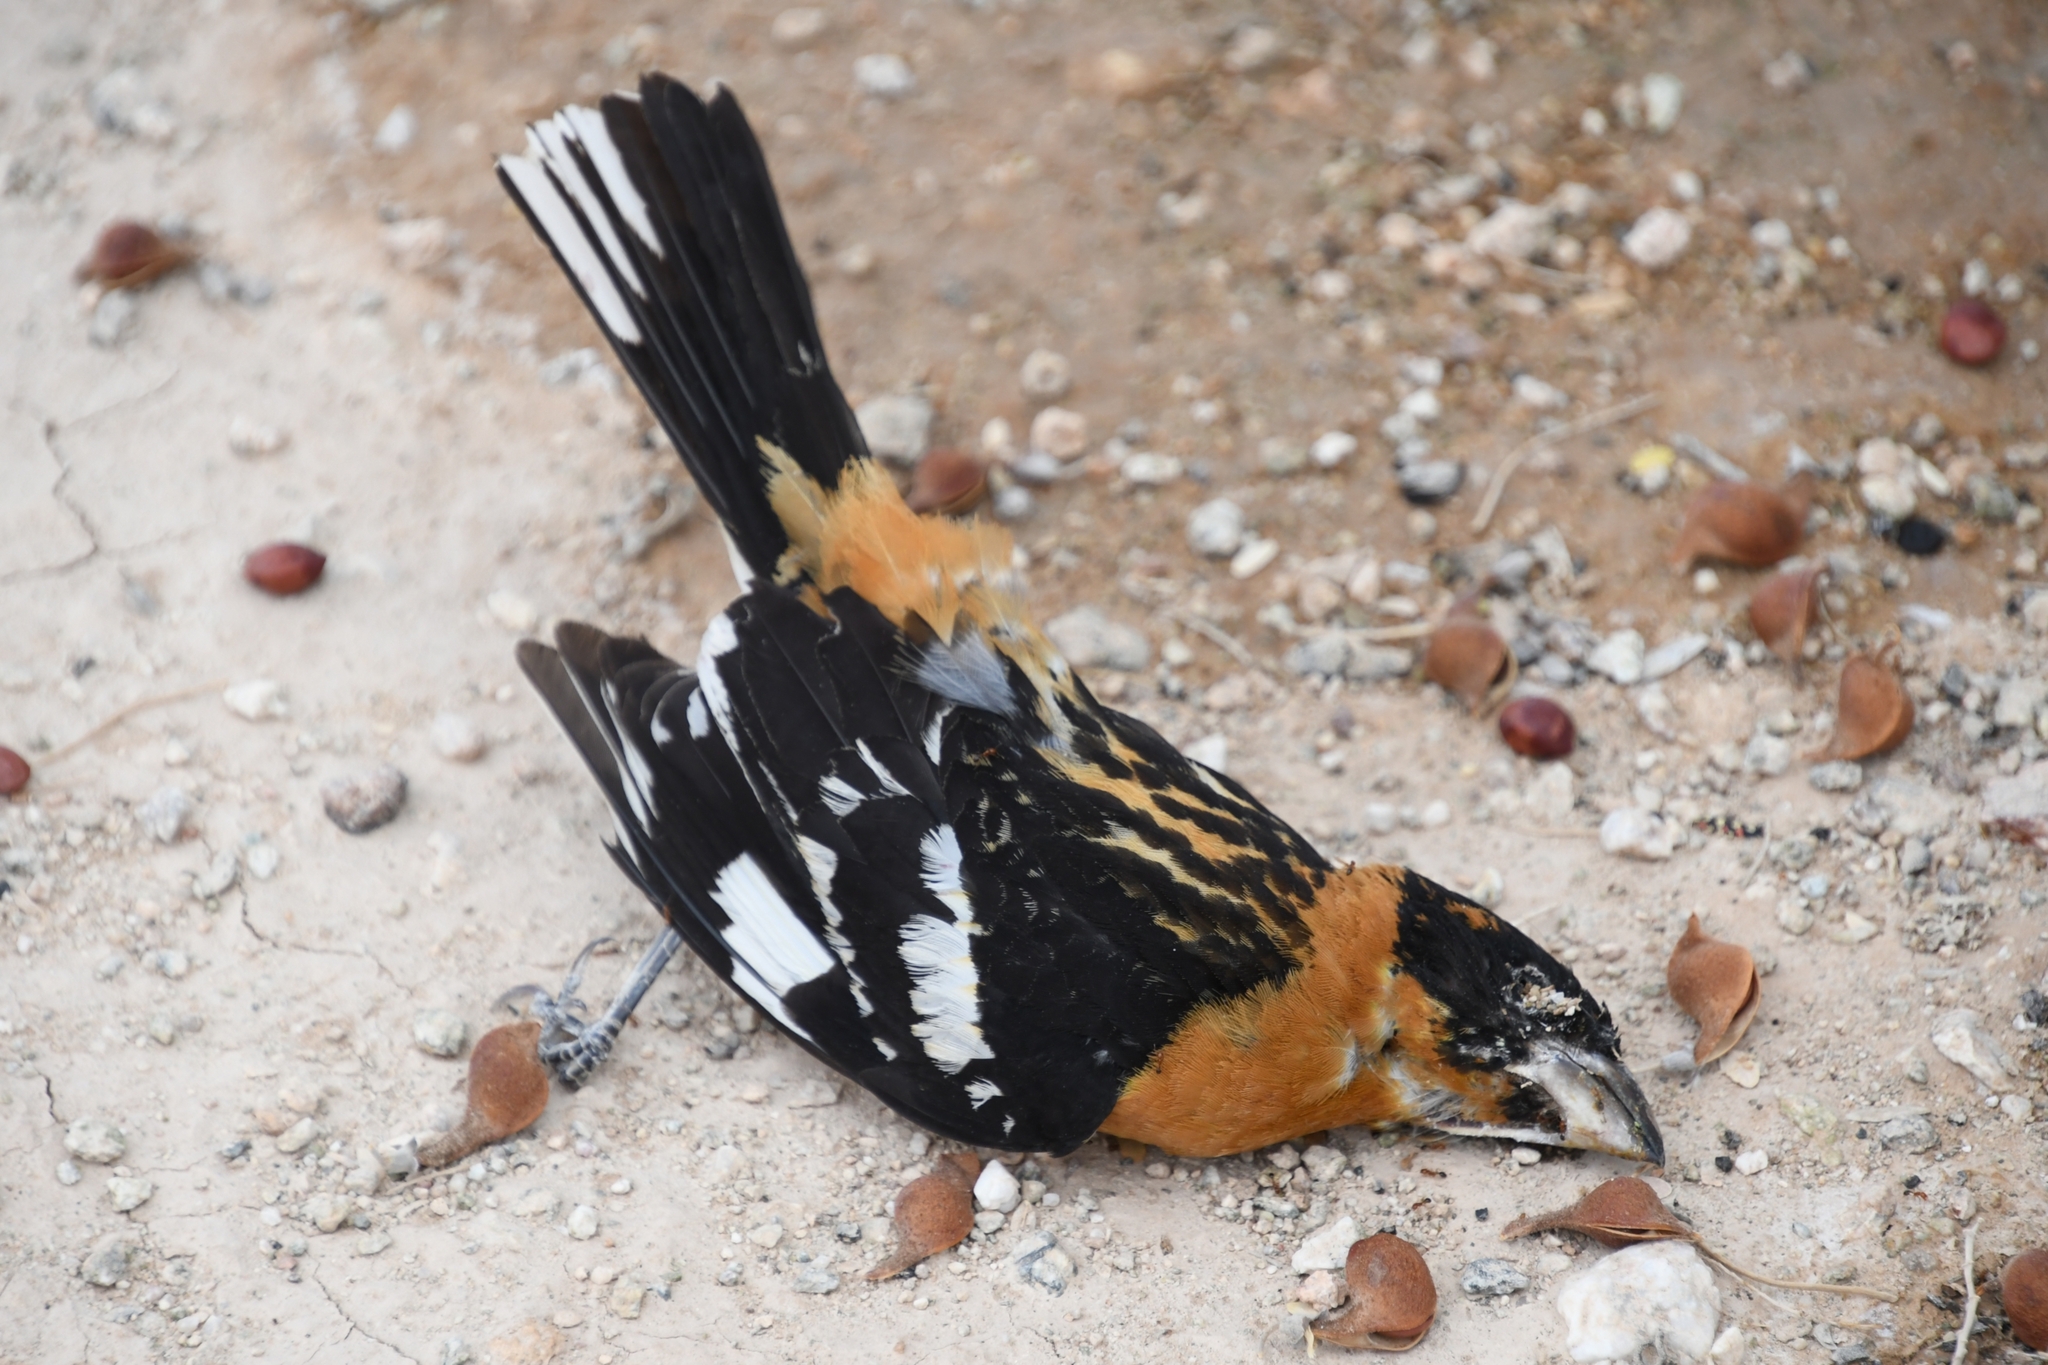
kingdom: Animalia
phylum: Chordata
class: Aves
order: Passeriformes
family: Cardinalidae
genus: Pheucticus
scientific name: Pheucticus melanocephalus
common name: Black-headed grosbeak
